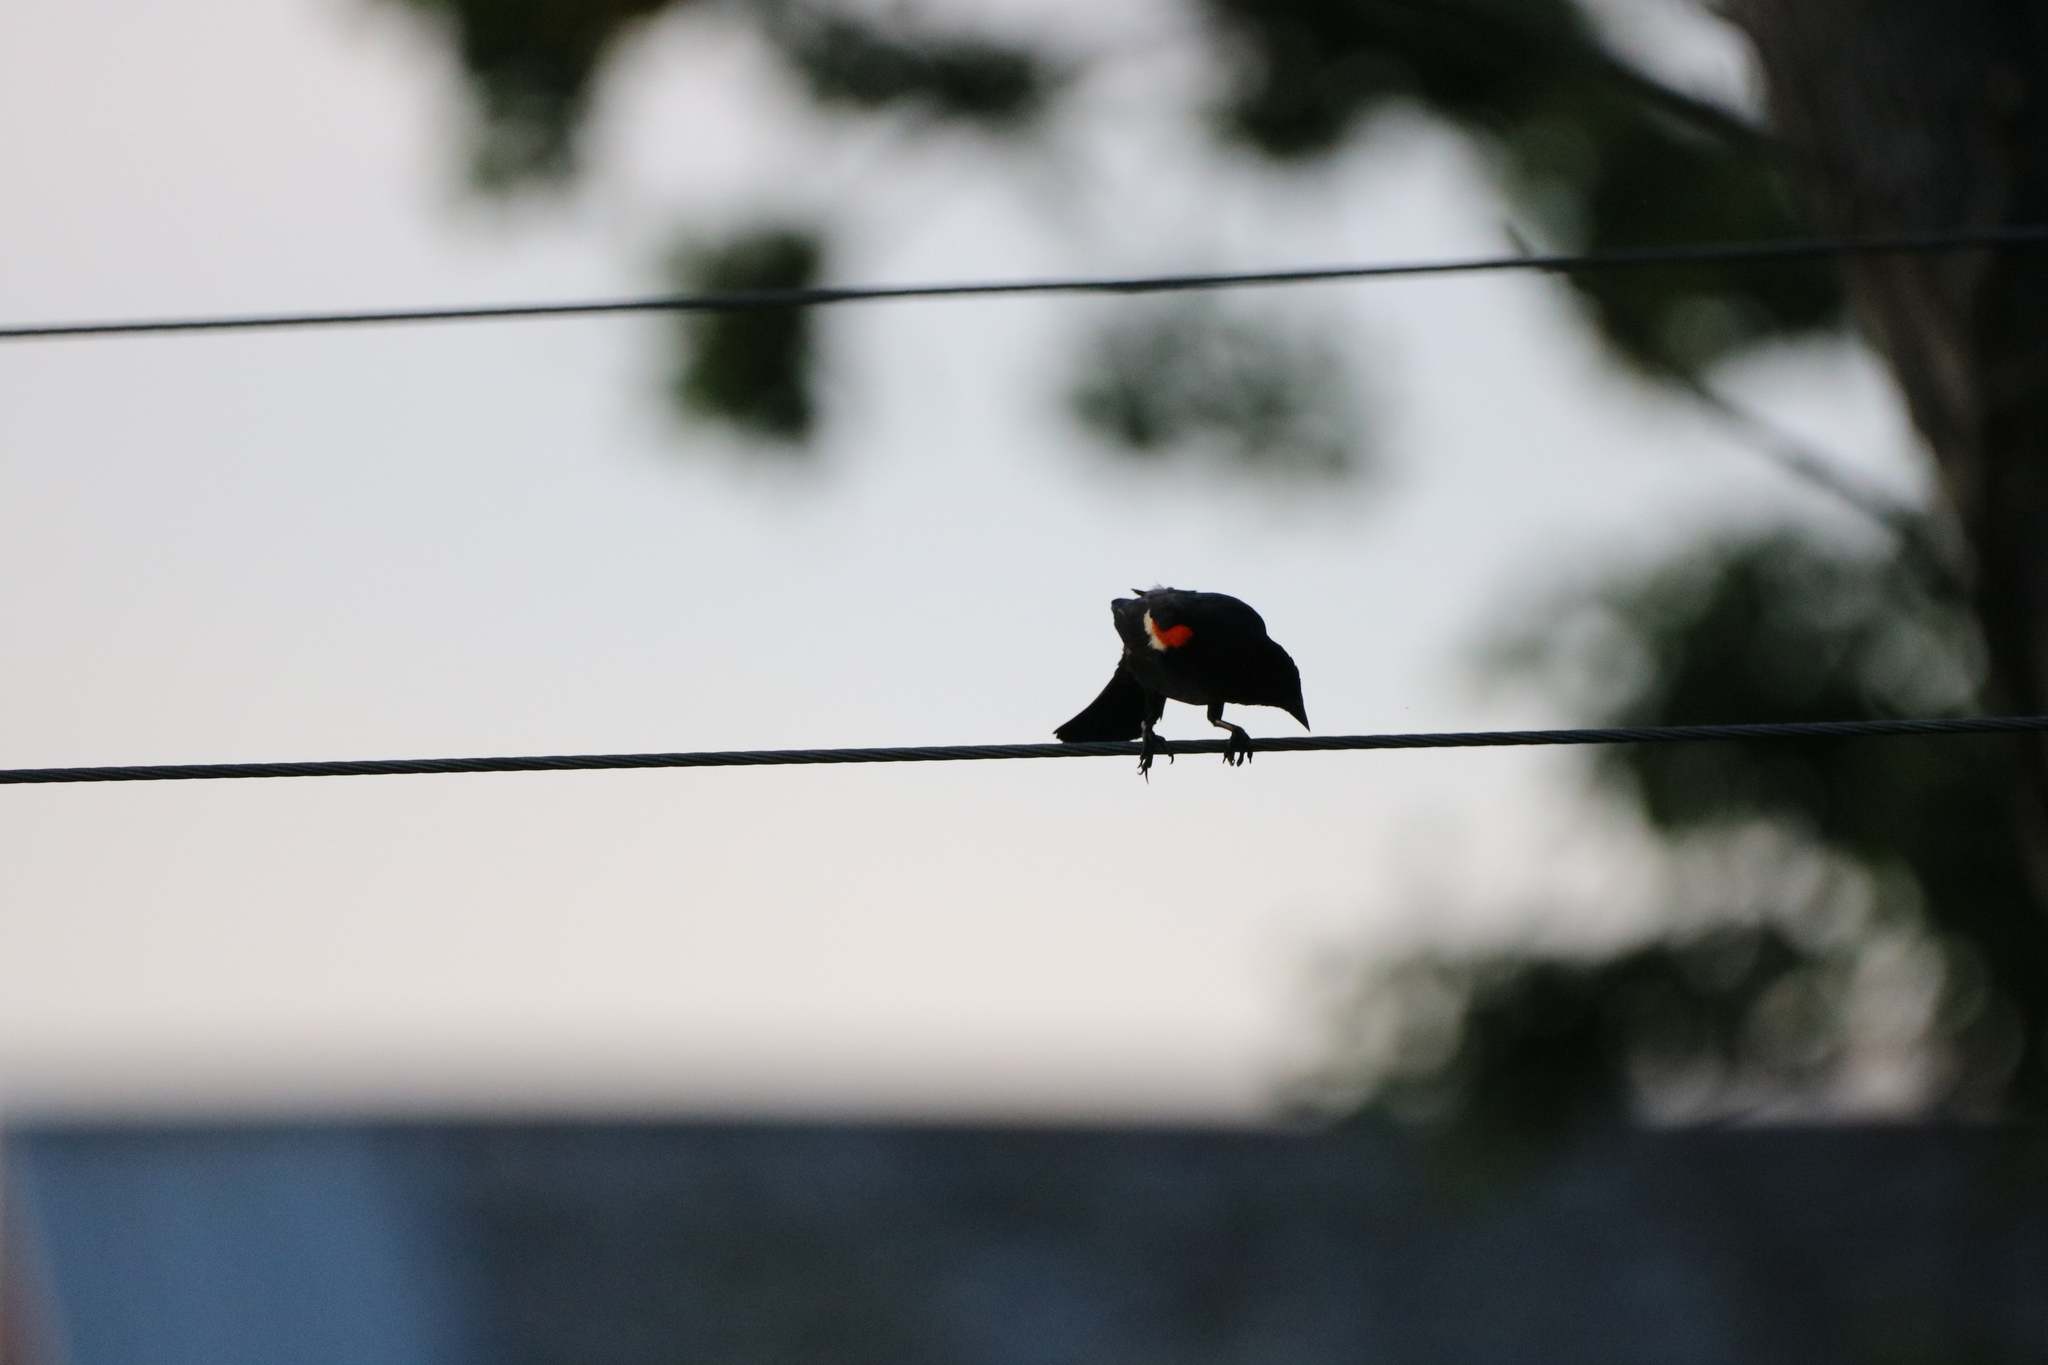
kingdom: Animalia
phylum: Chordata
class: Aves
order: Passeriformes
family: Icteridae
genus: Agelaius
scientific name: Agelaius phoeniceus
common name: Red-winged blackbird
